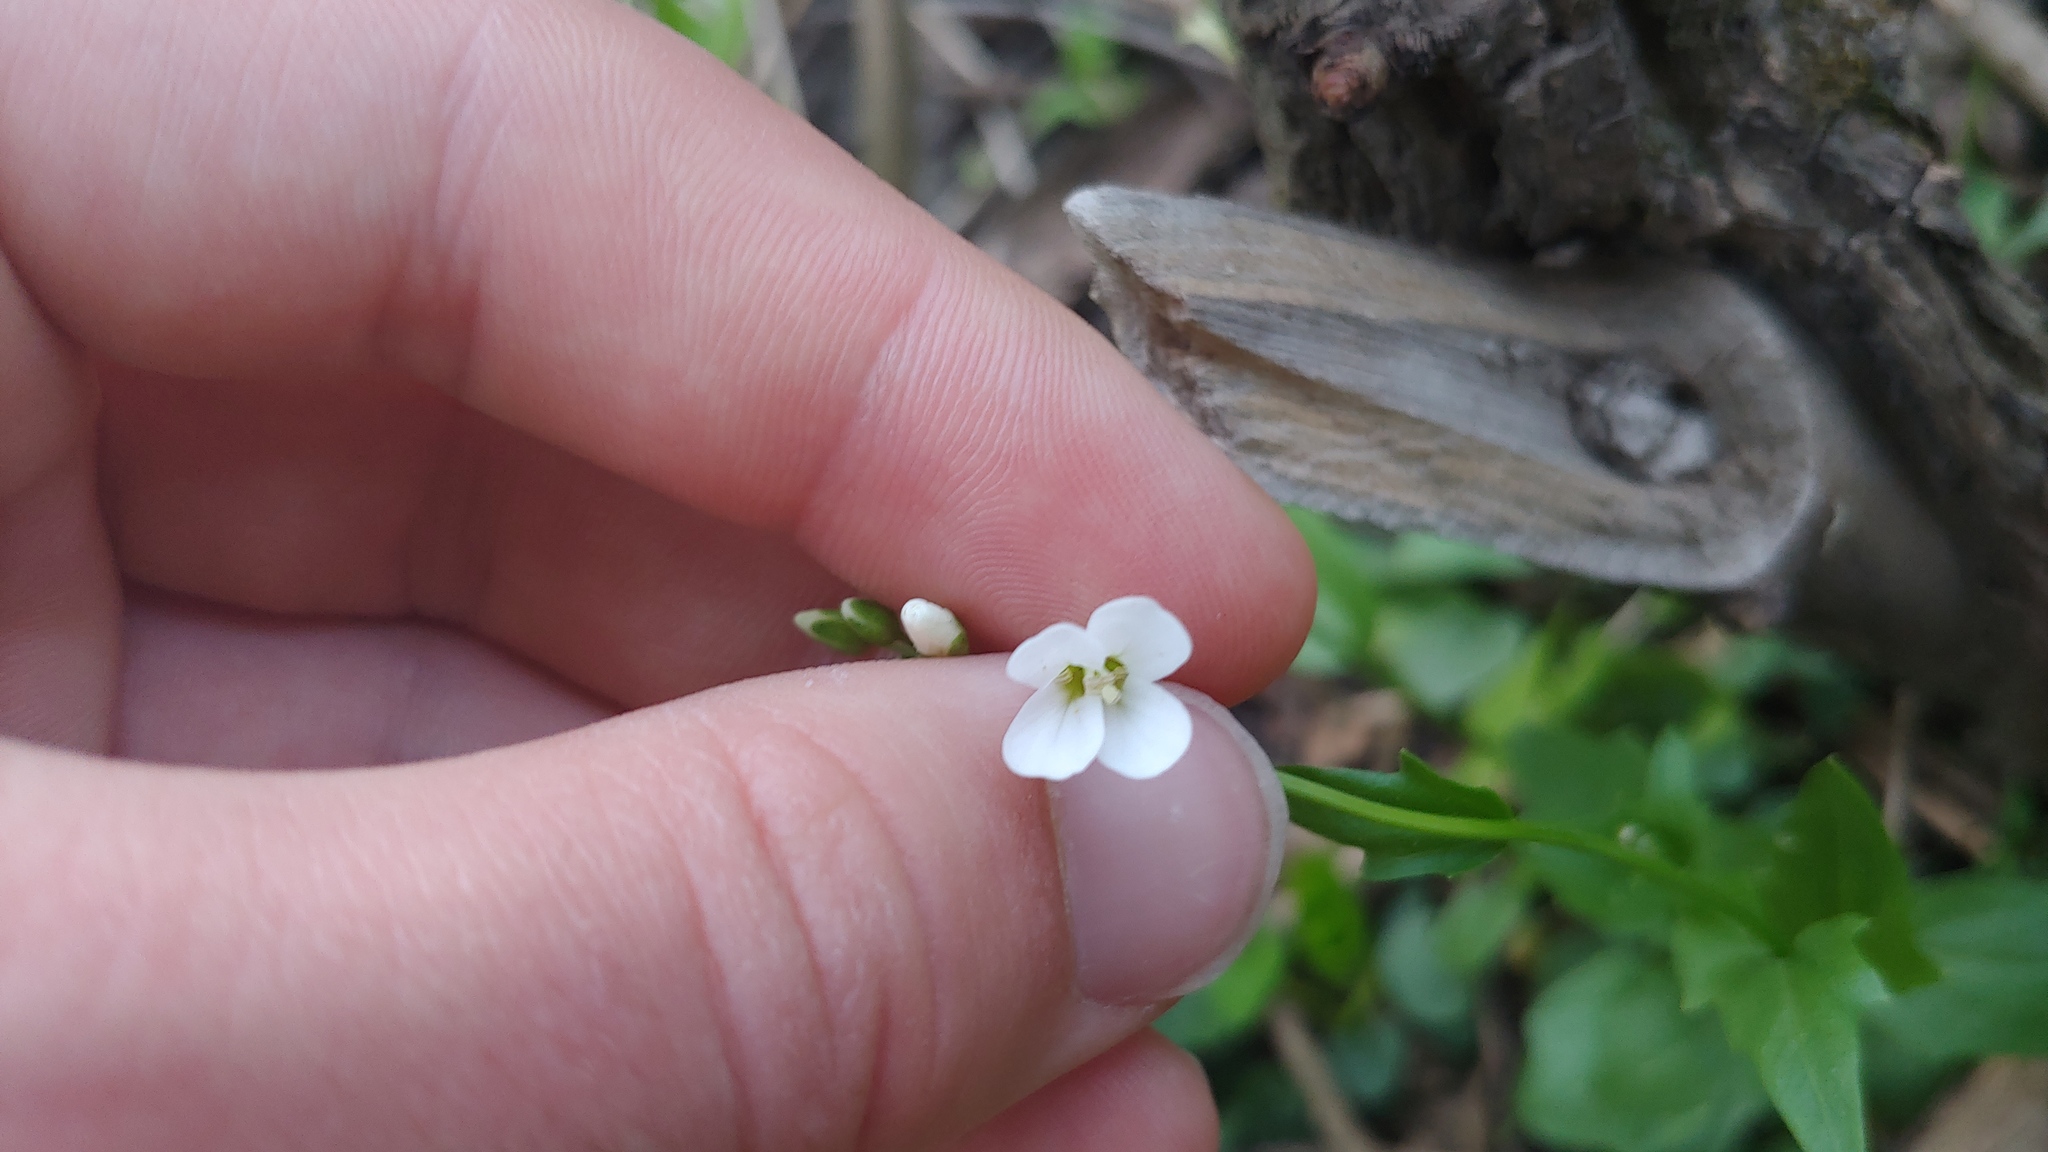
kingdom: Plantae
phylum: Tracheophyta
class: Magnoliopsida
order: Brassicales
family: Brassicaceae
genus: Cardamine
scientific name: Cardamine bulbosa
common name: Spring cress
